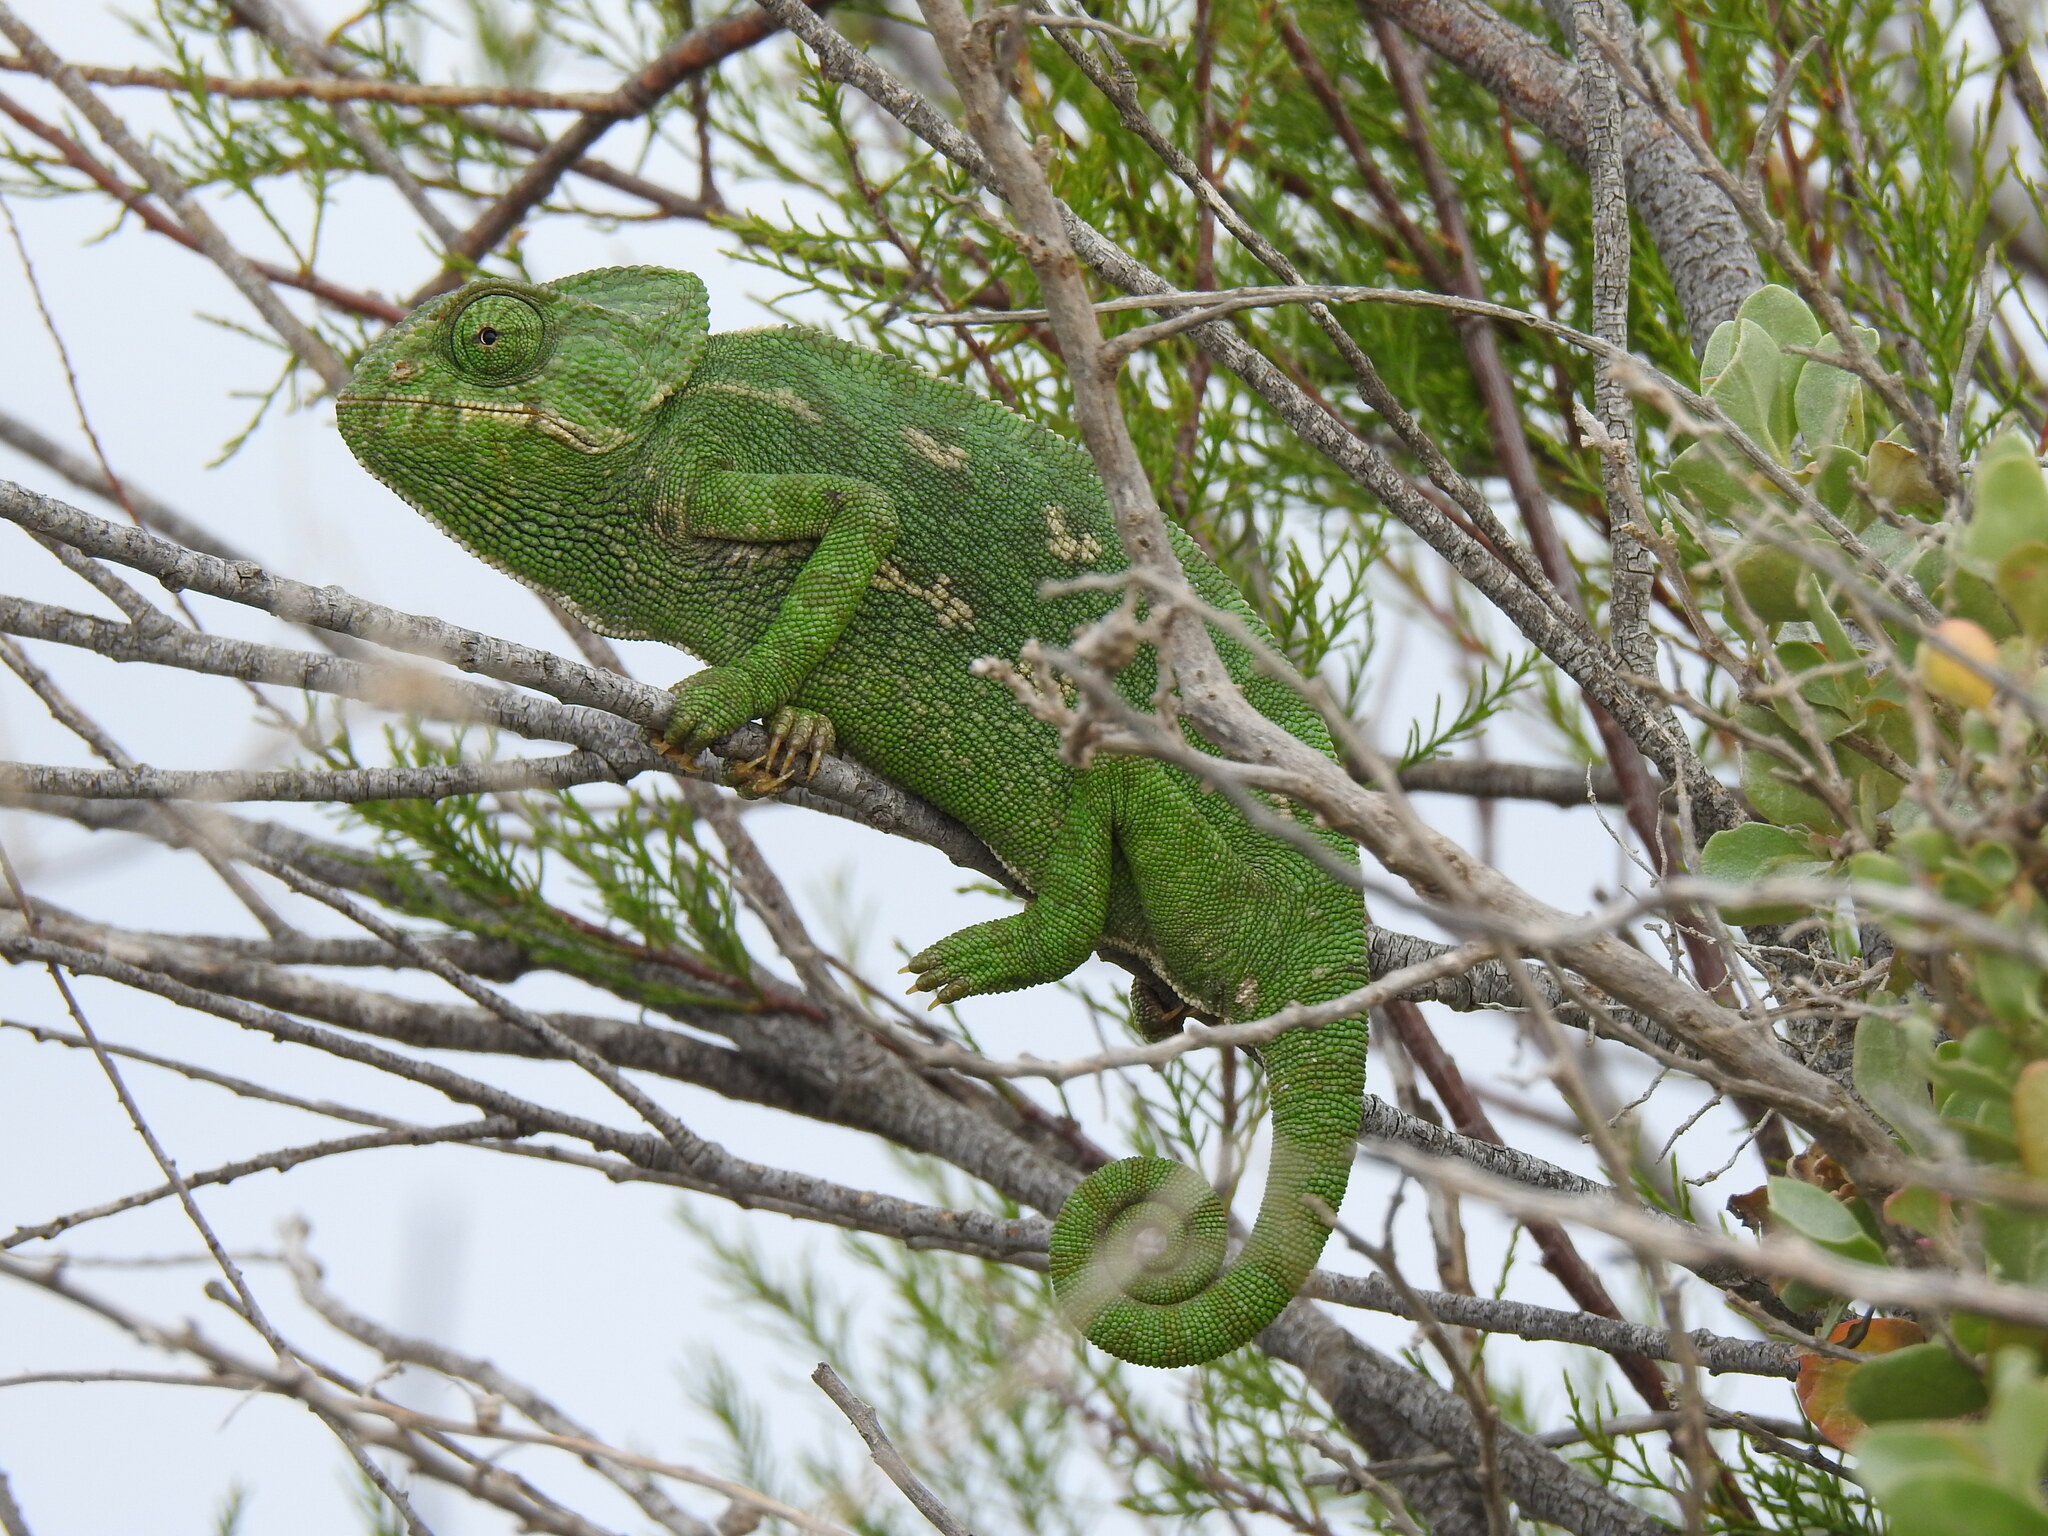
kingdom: Animalia
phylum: Chordata
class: Squamata
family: Chamaeleonidae
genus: Chamaeleo
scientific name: Chamaeleo chamaeleon
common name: Mediterranean chameleon
